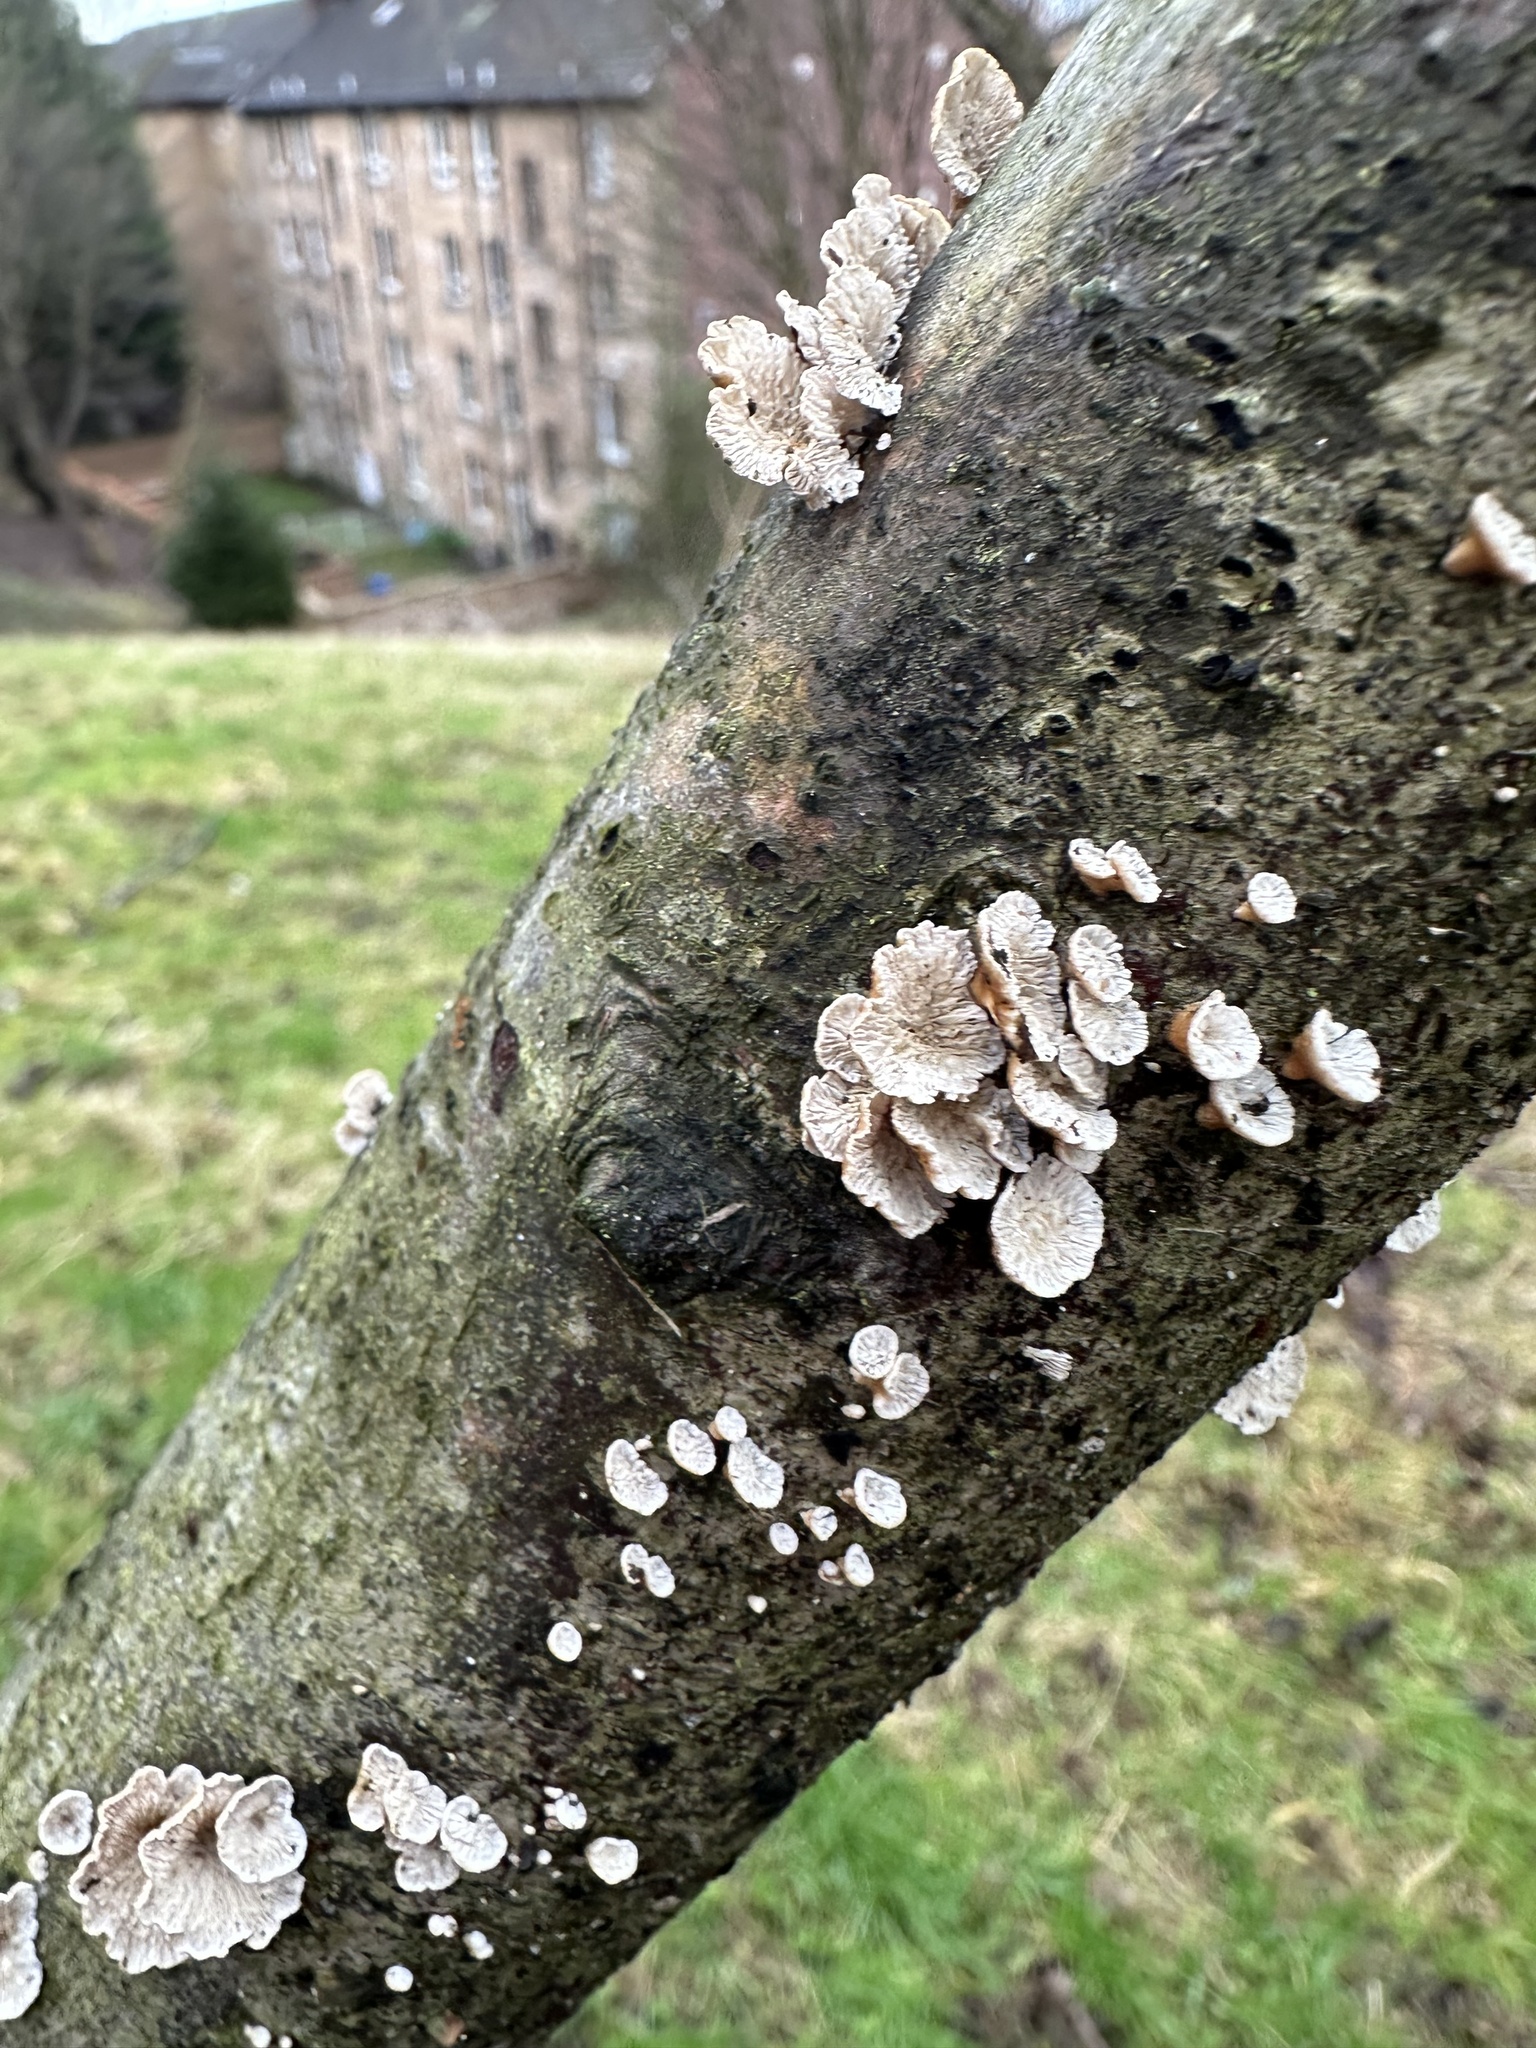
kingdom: Fungi
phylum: Basidiomycota
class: Agaricomycetes
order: Amylocorticiales
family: Amylocorticiaceae
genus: Plicaturopsis
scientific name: Plicaturopsis crispa
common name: Crimped gill
